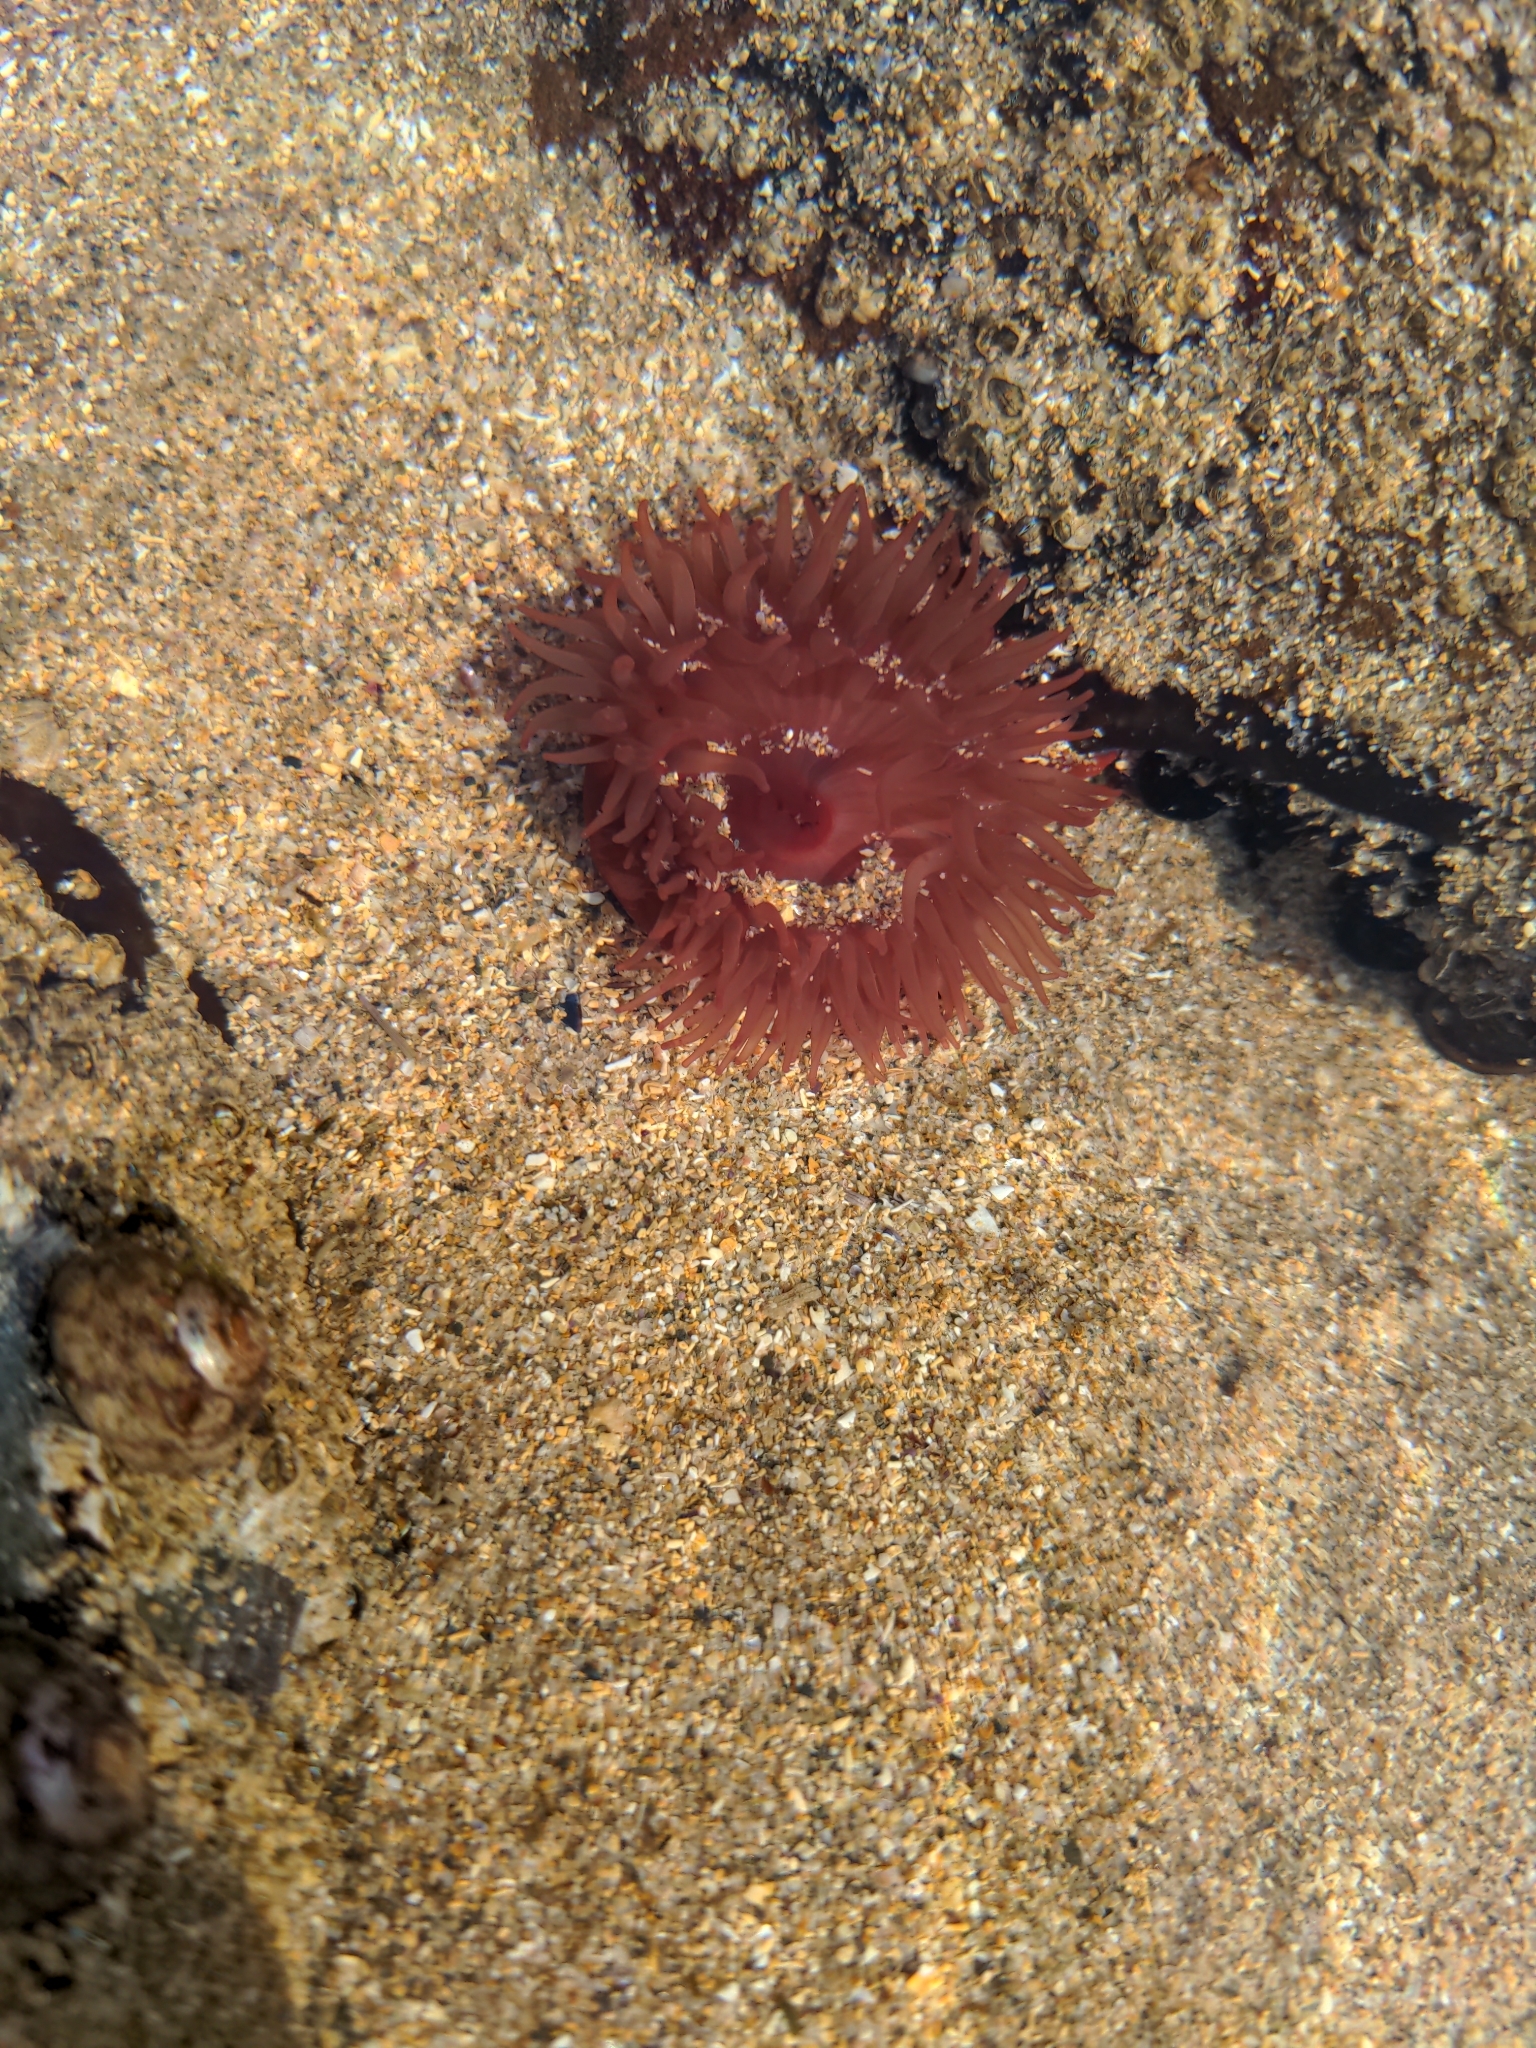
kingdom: Animalia
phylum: Cnidaria
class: Anthozoa
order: Actiniaria
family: Actiniidae
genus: Actinia
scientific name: Actinia equina
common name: Beadlet anemone
